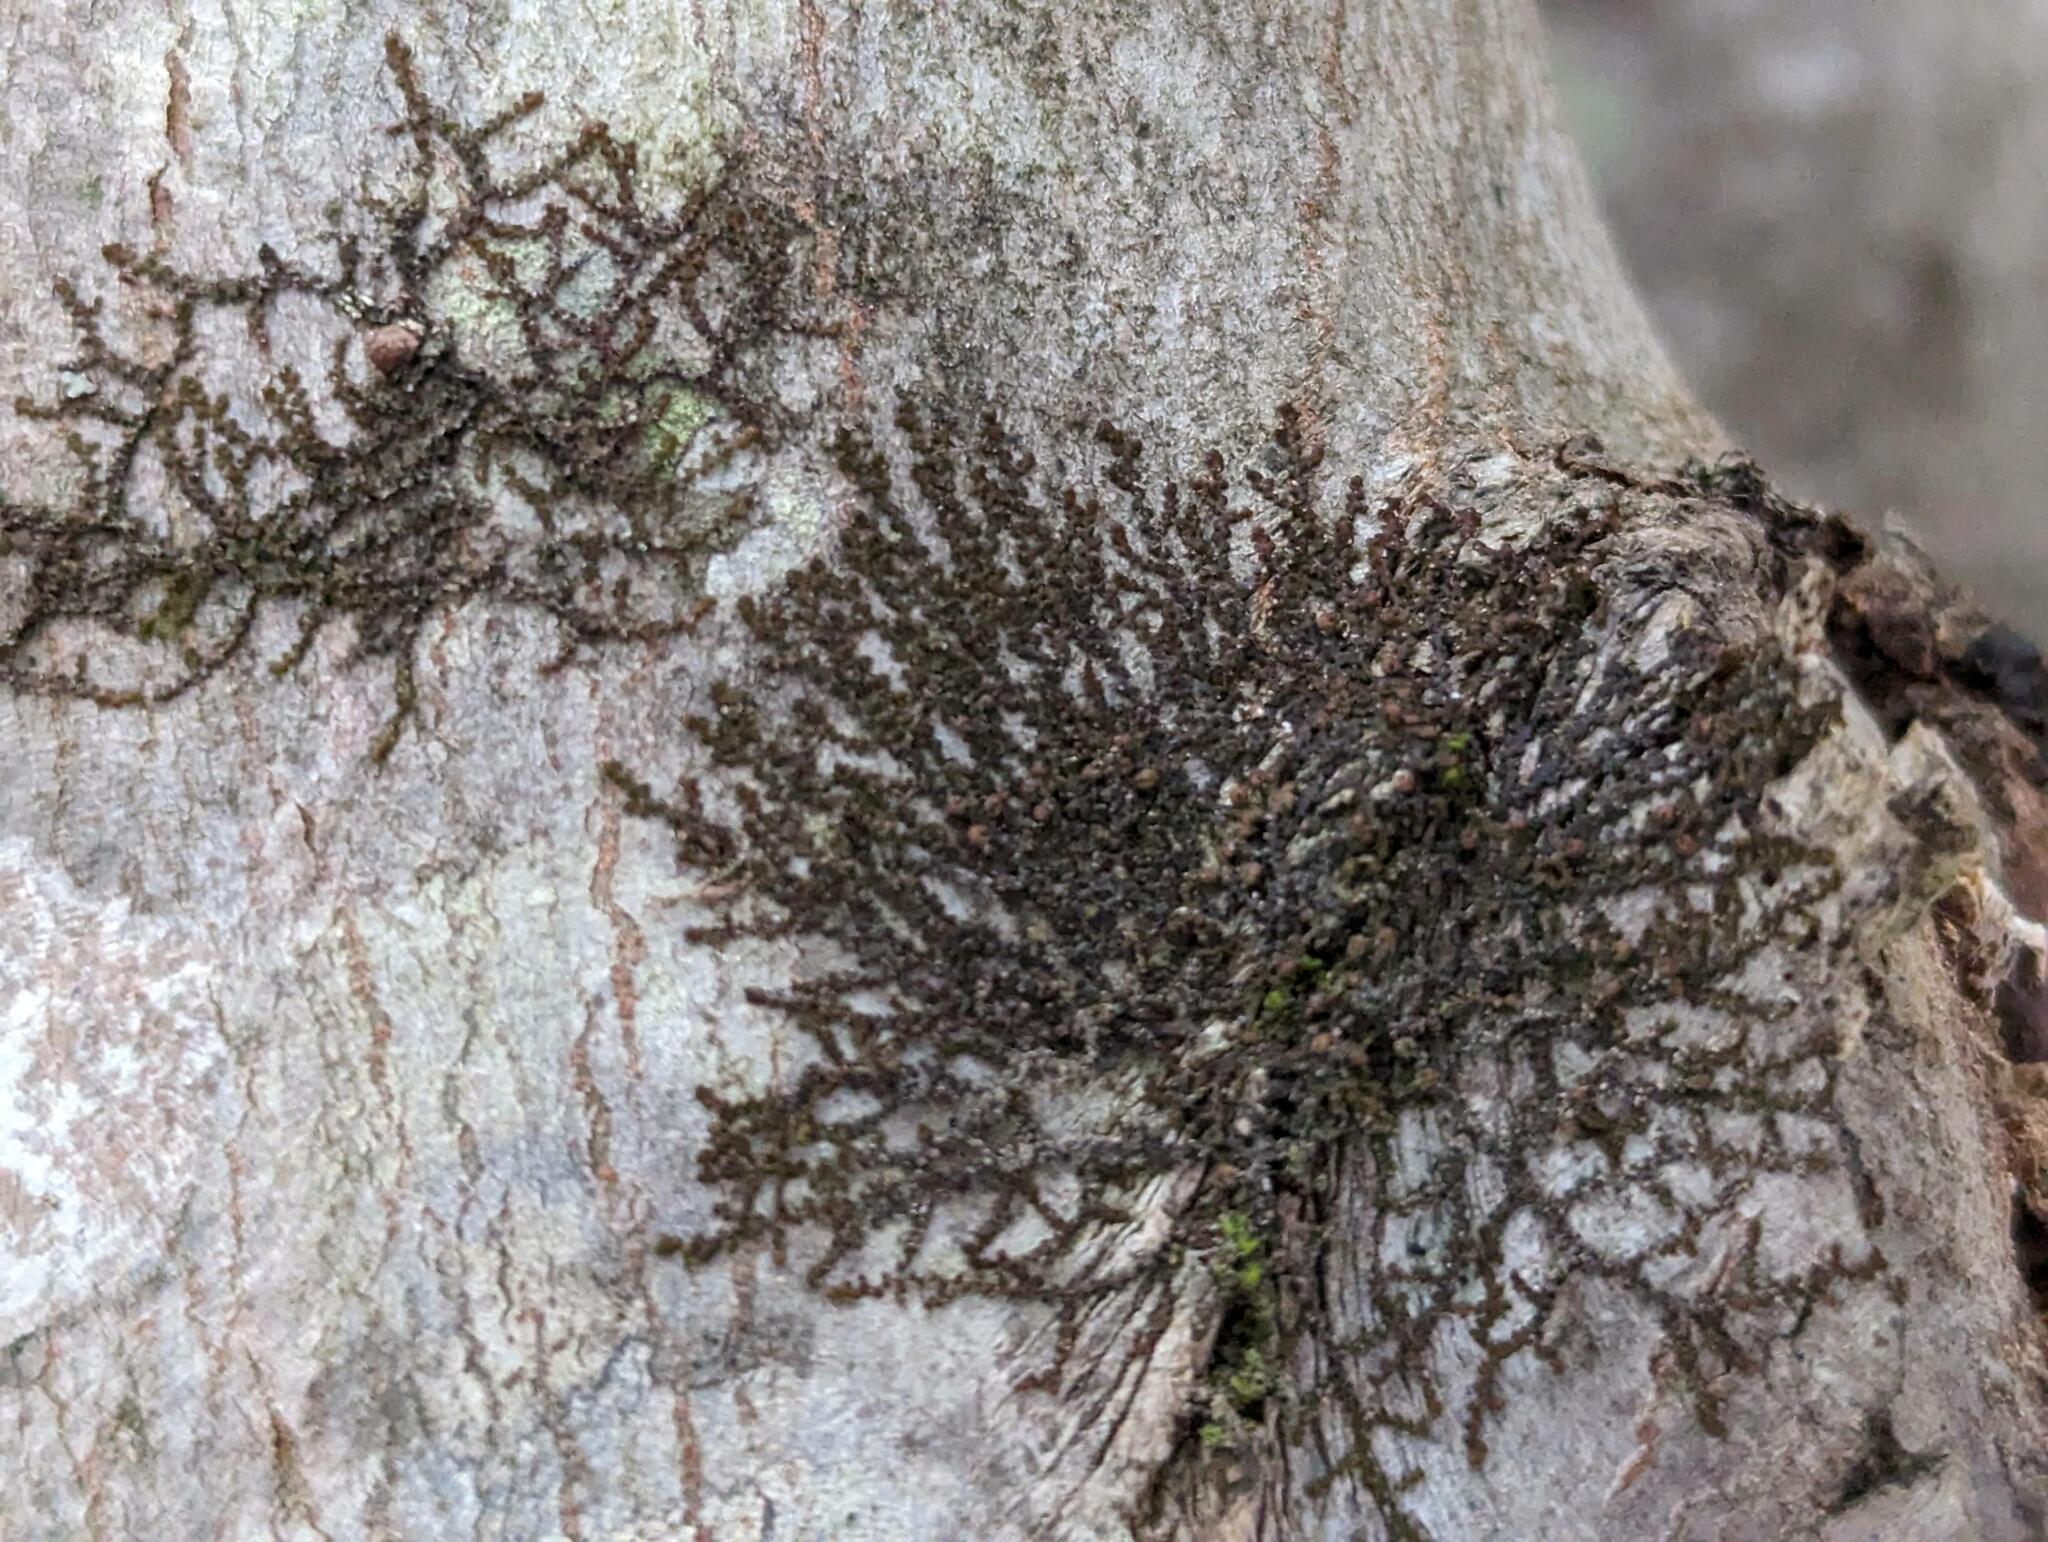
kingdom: Plantae
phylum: Marchantiophyta
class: Jungermanniopsida
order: Porellales
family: Frullaniaceae
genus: Frullania
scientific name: Frullania eboracensis
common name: New york scalewort
